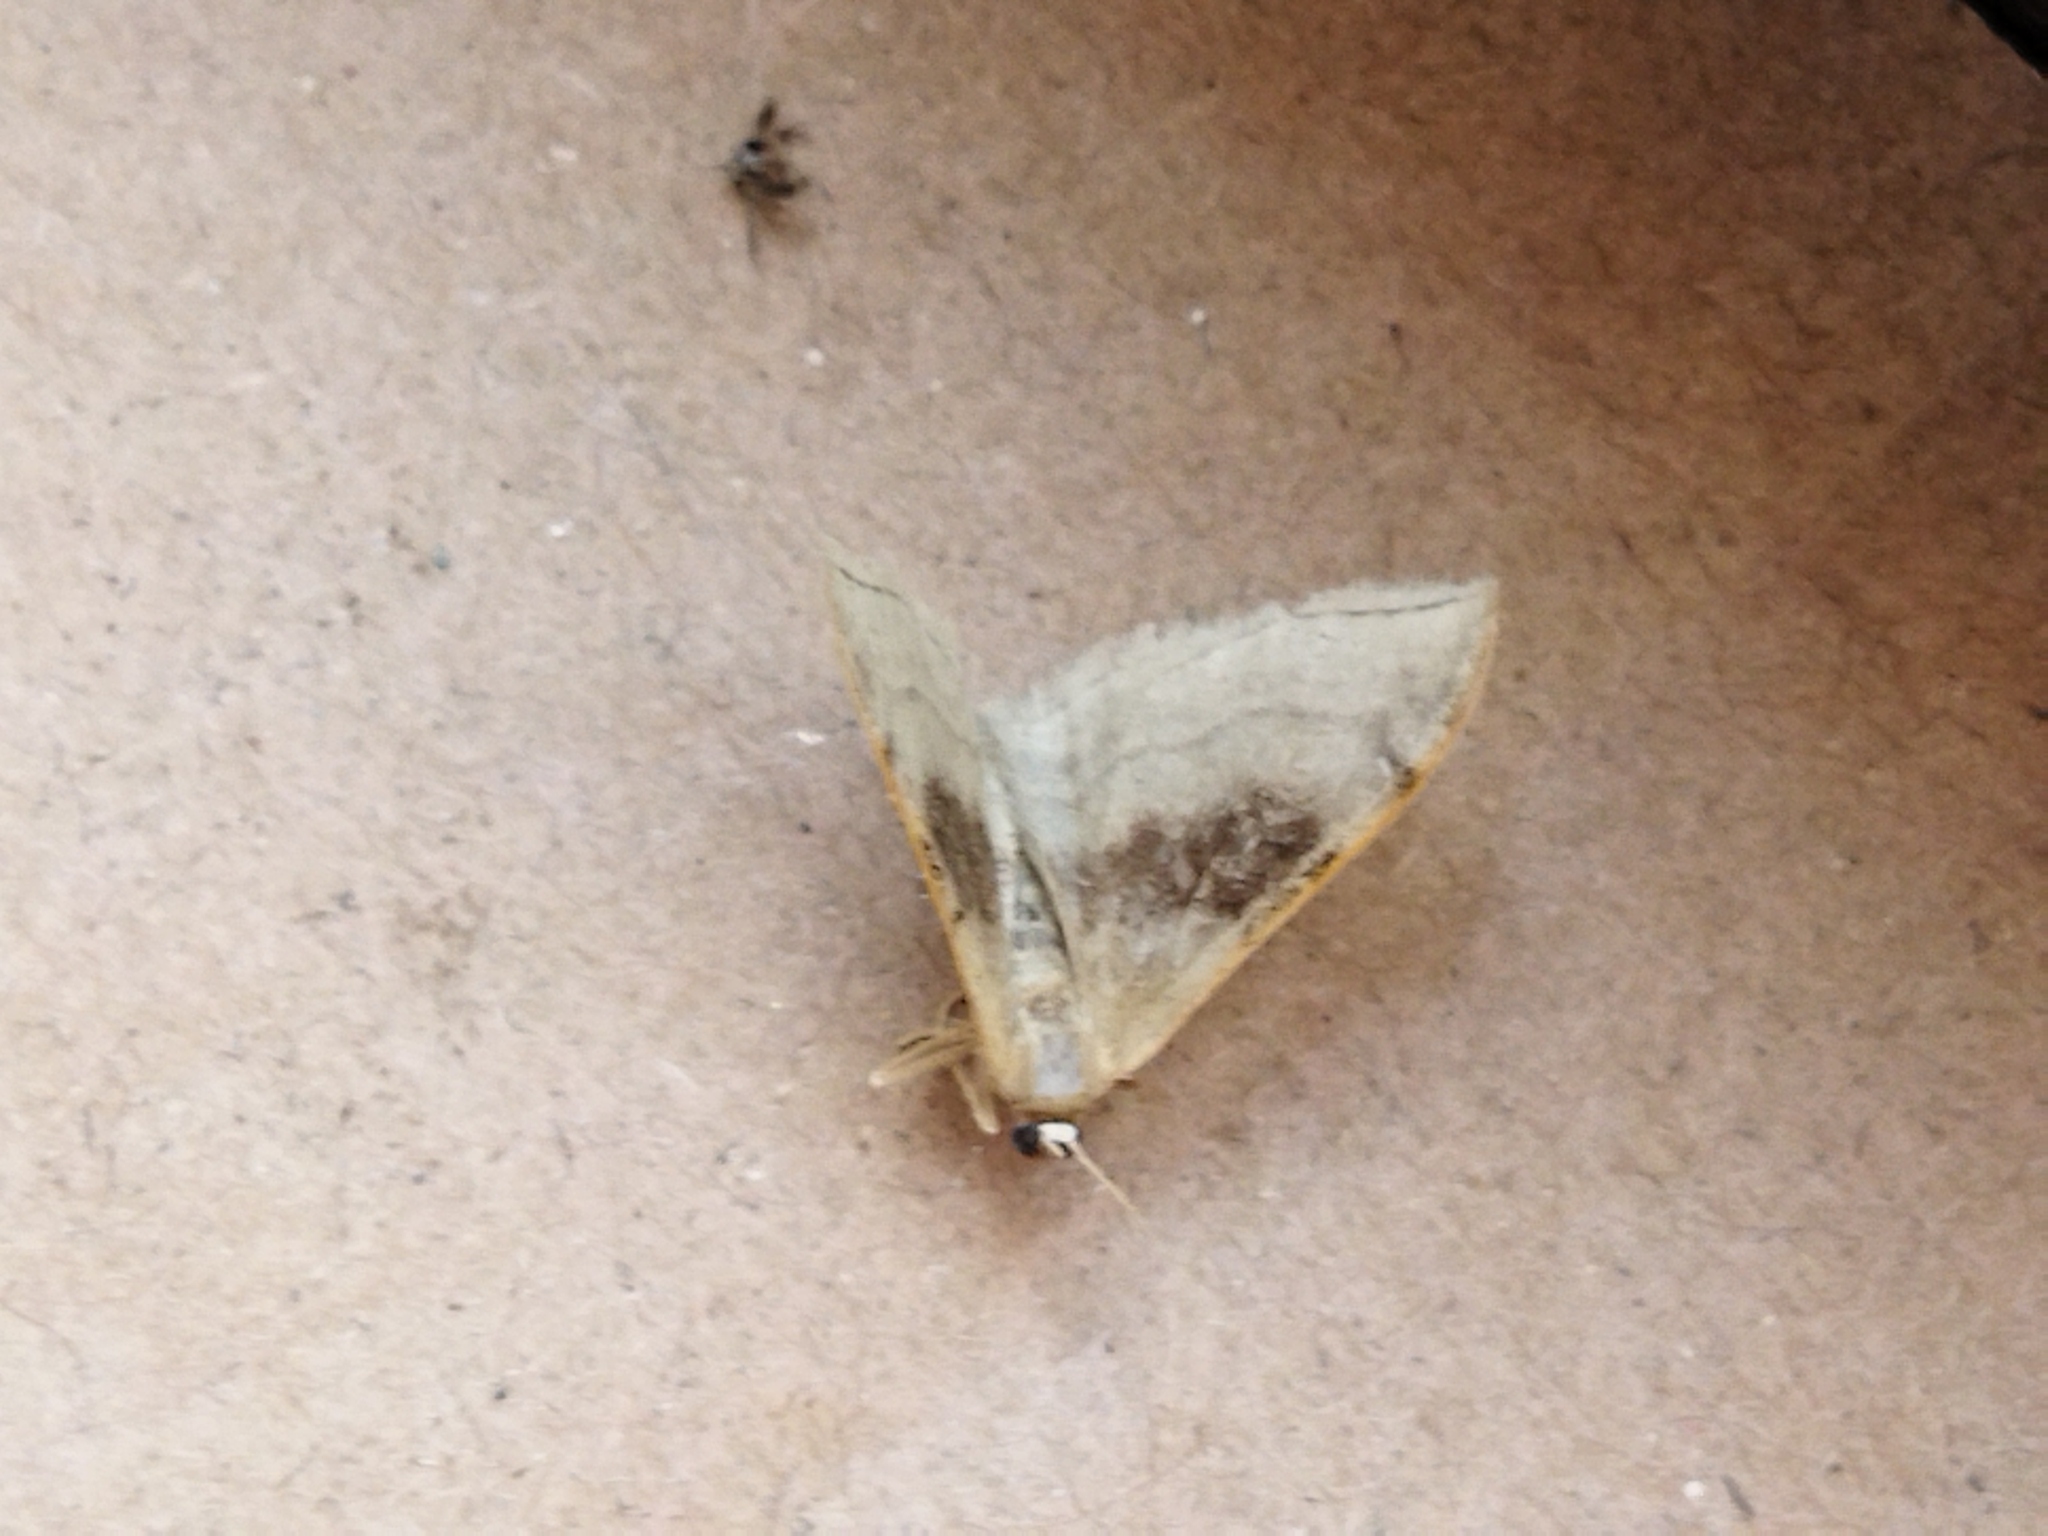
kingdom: Animalia
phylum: Arthropoda
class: Insecta
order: Lepidoptera
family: Geometridae
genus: Idaea
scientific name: Idaea degeneraria
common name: Portland ribbon wave
